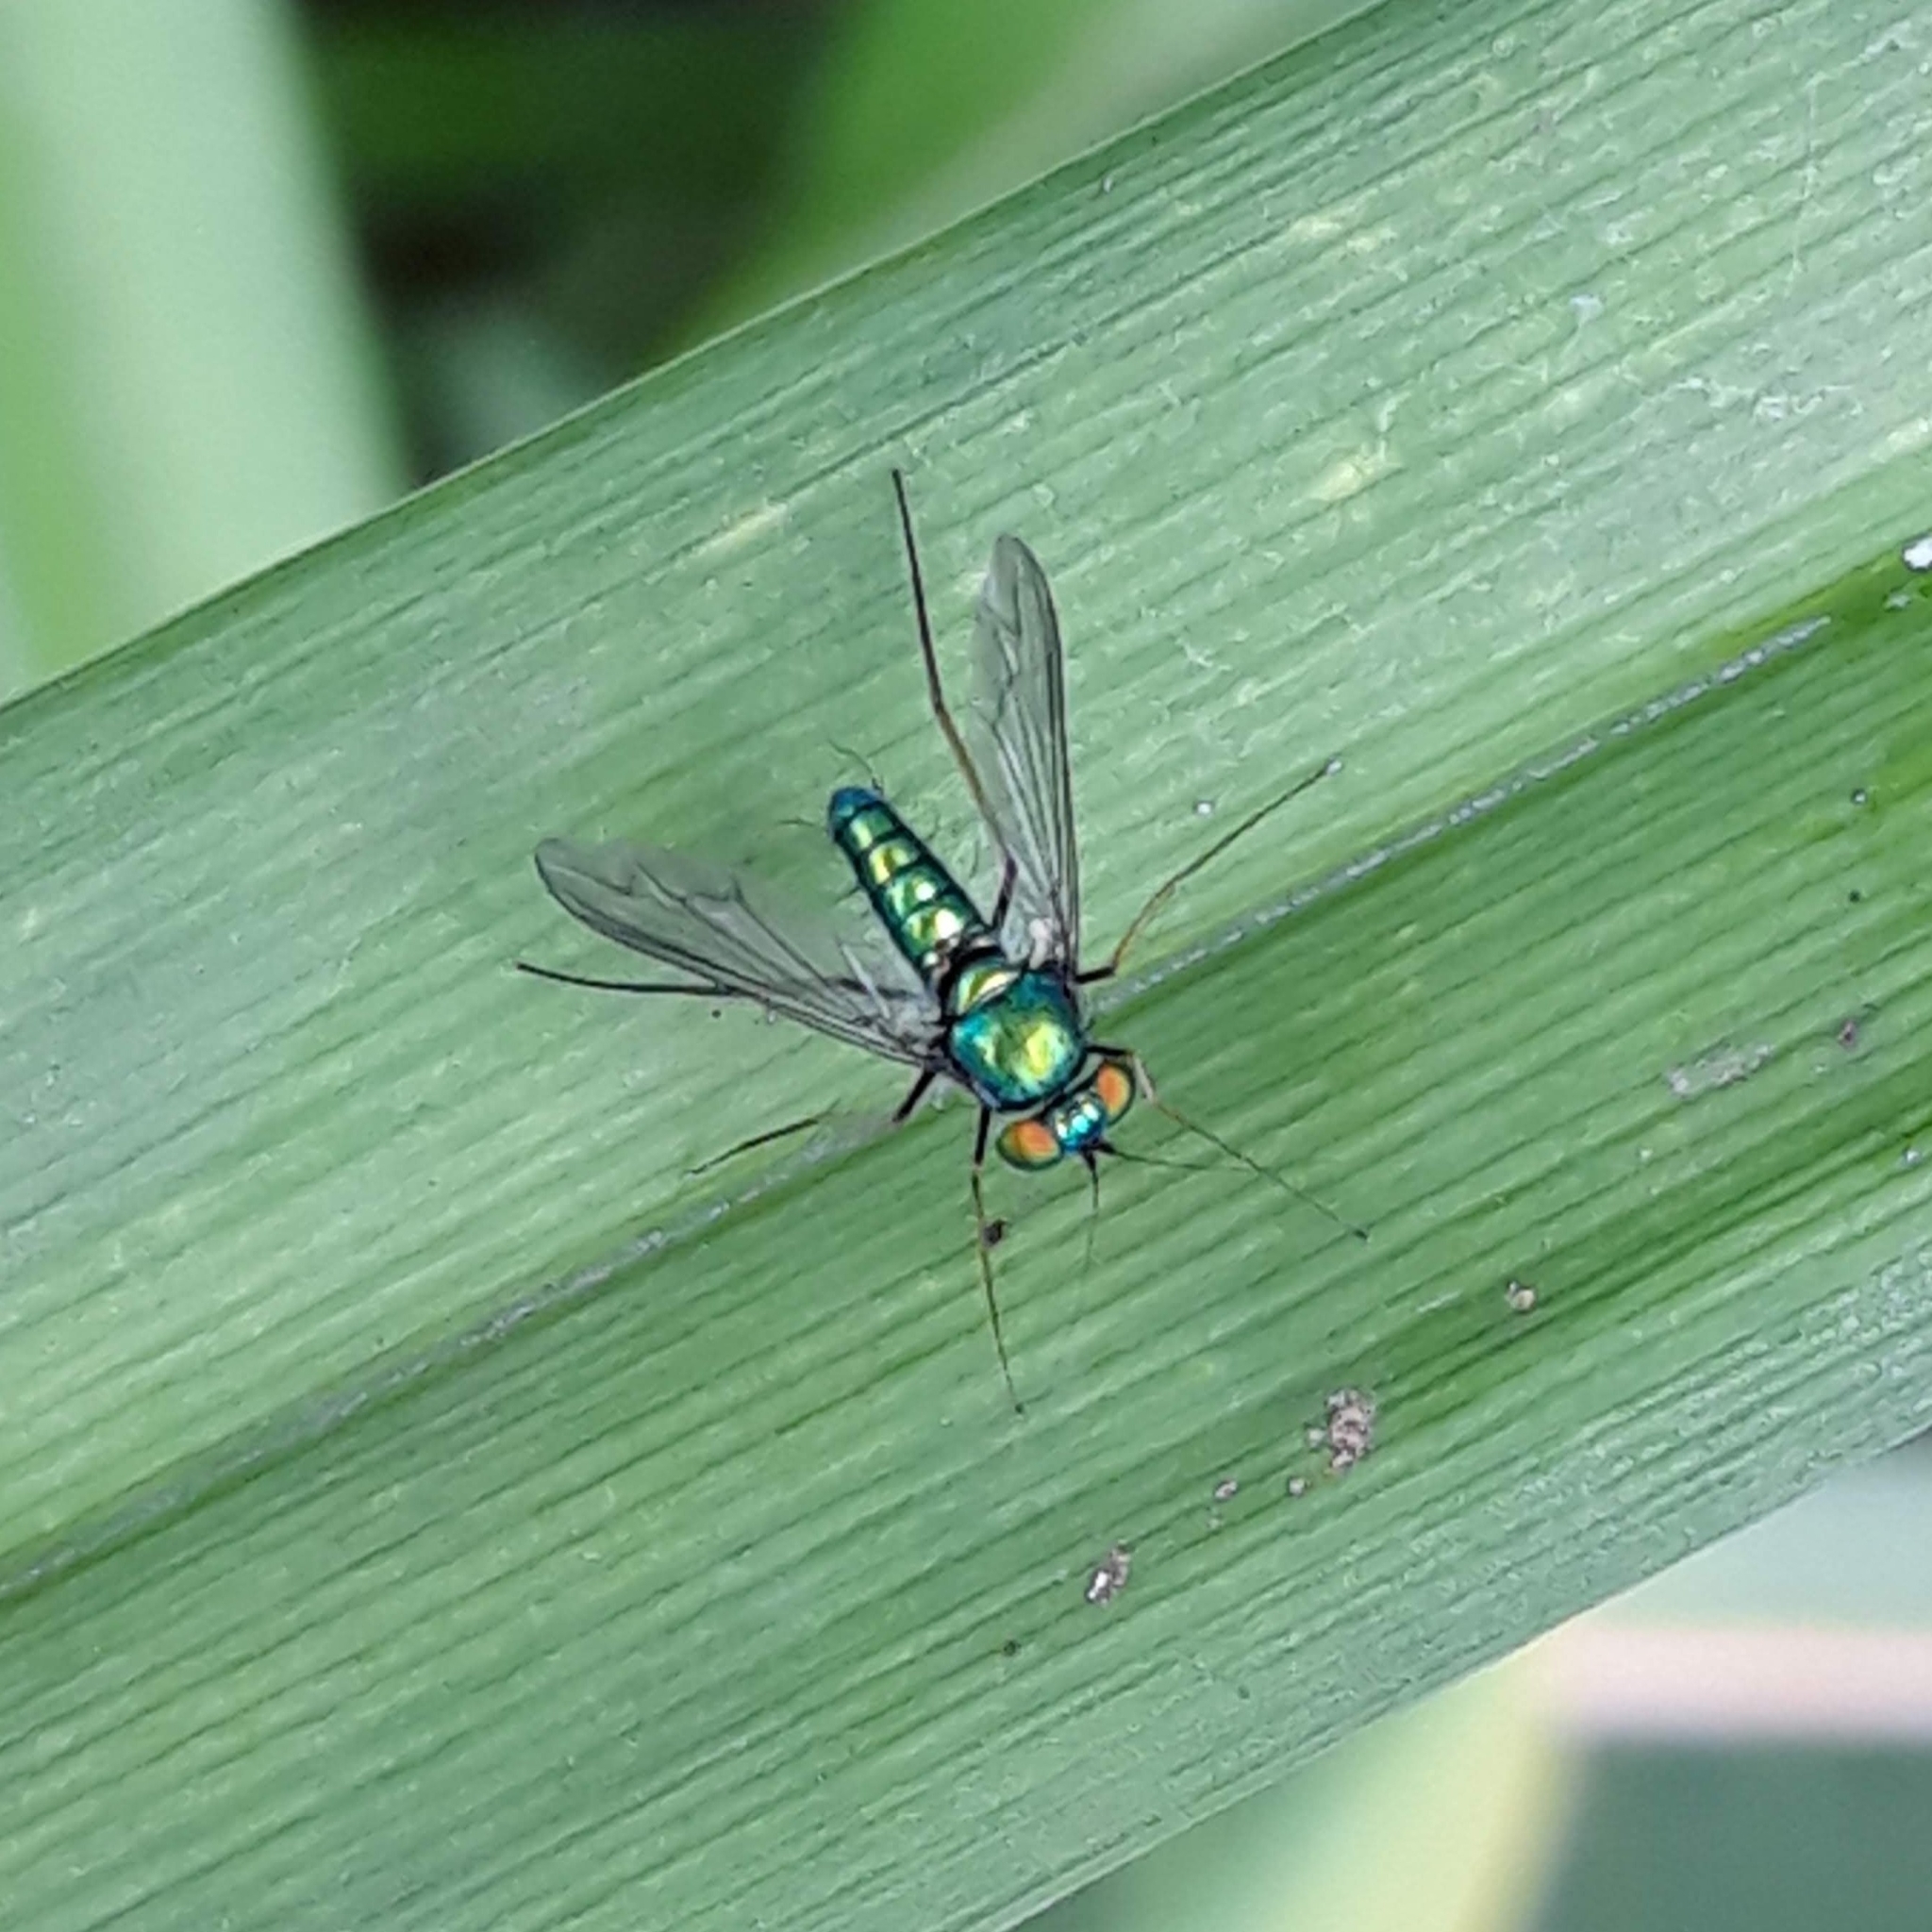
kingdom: Animalia
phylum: Arthropoda
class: Insecta
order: Diptera
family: Dolichopodidae
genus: Condylostylus
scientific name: Condylostylus comatus
